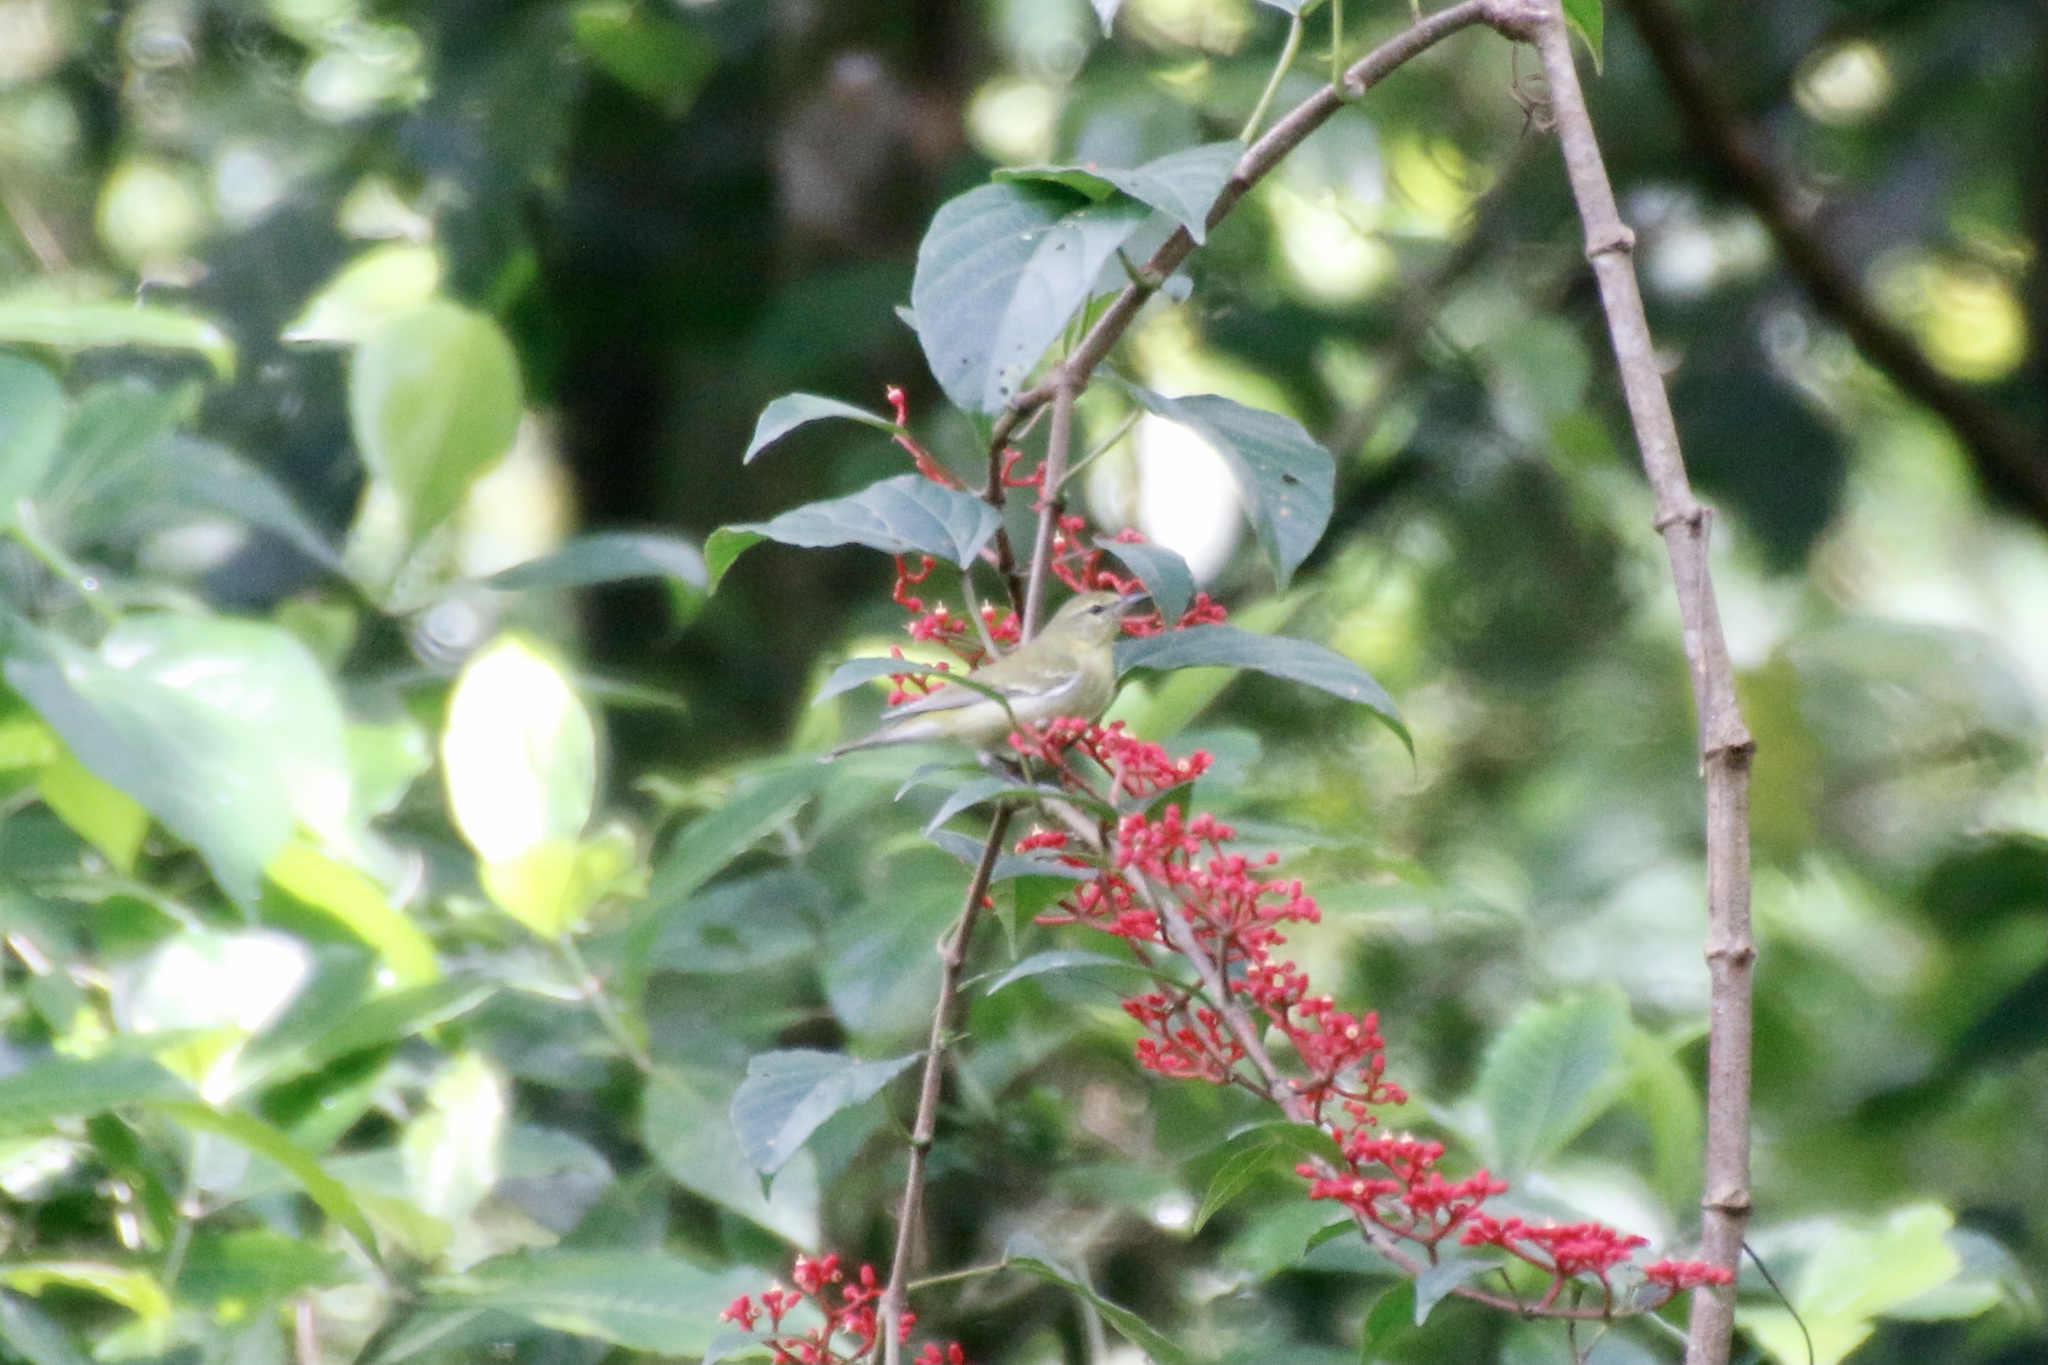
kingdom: Animalia
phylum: Chordata
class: Aves
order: Passeriformes
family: Parulidae
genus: Leiothlypis
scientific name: Leiothlypis peregrina
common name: Tennessee warbler
